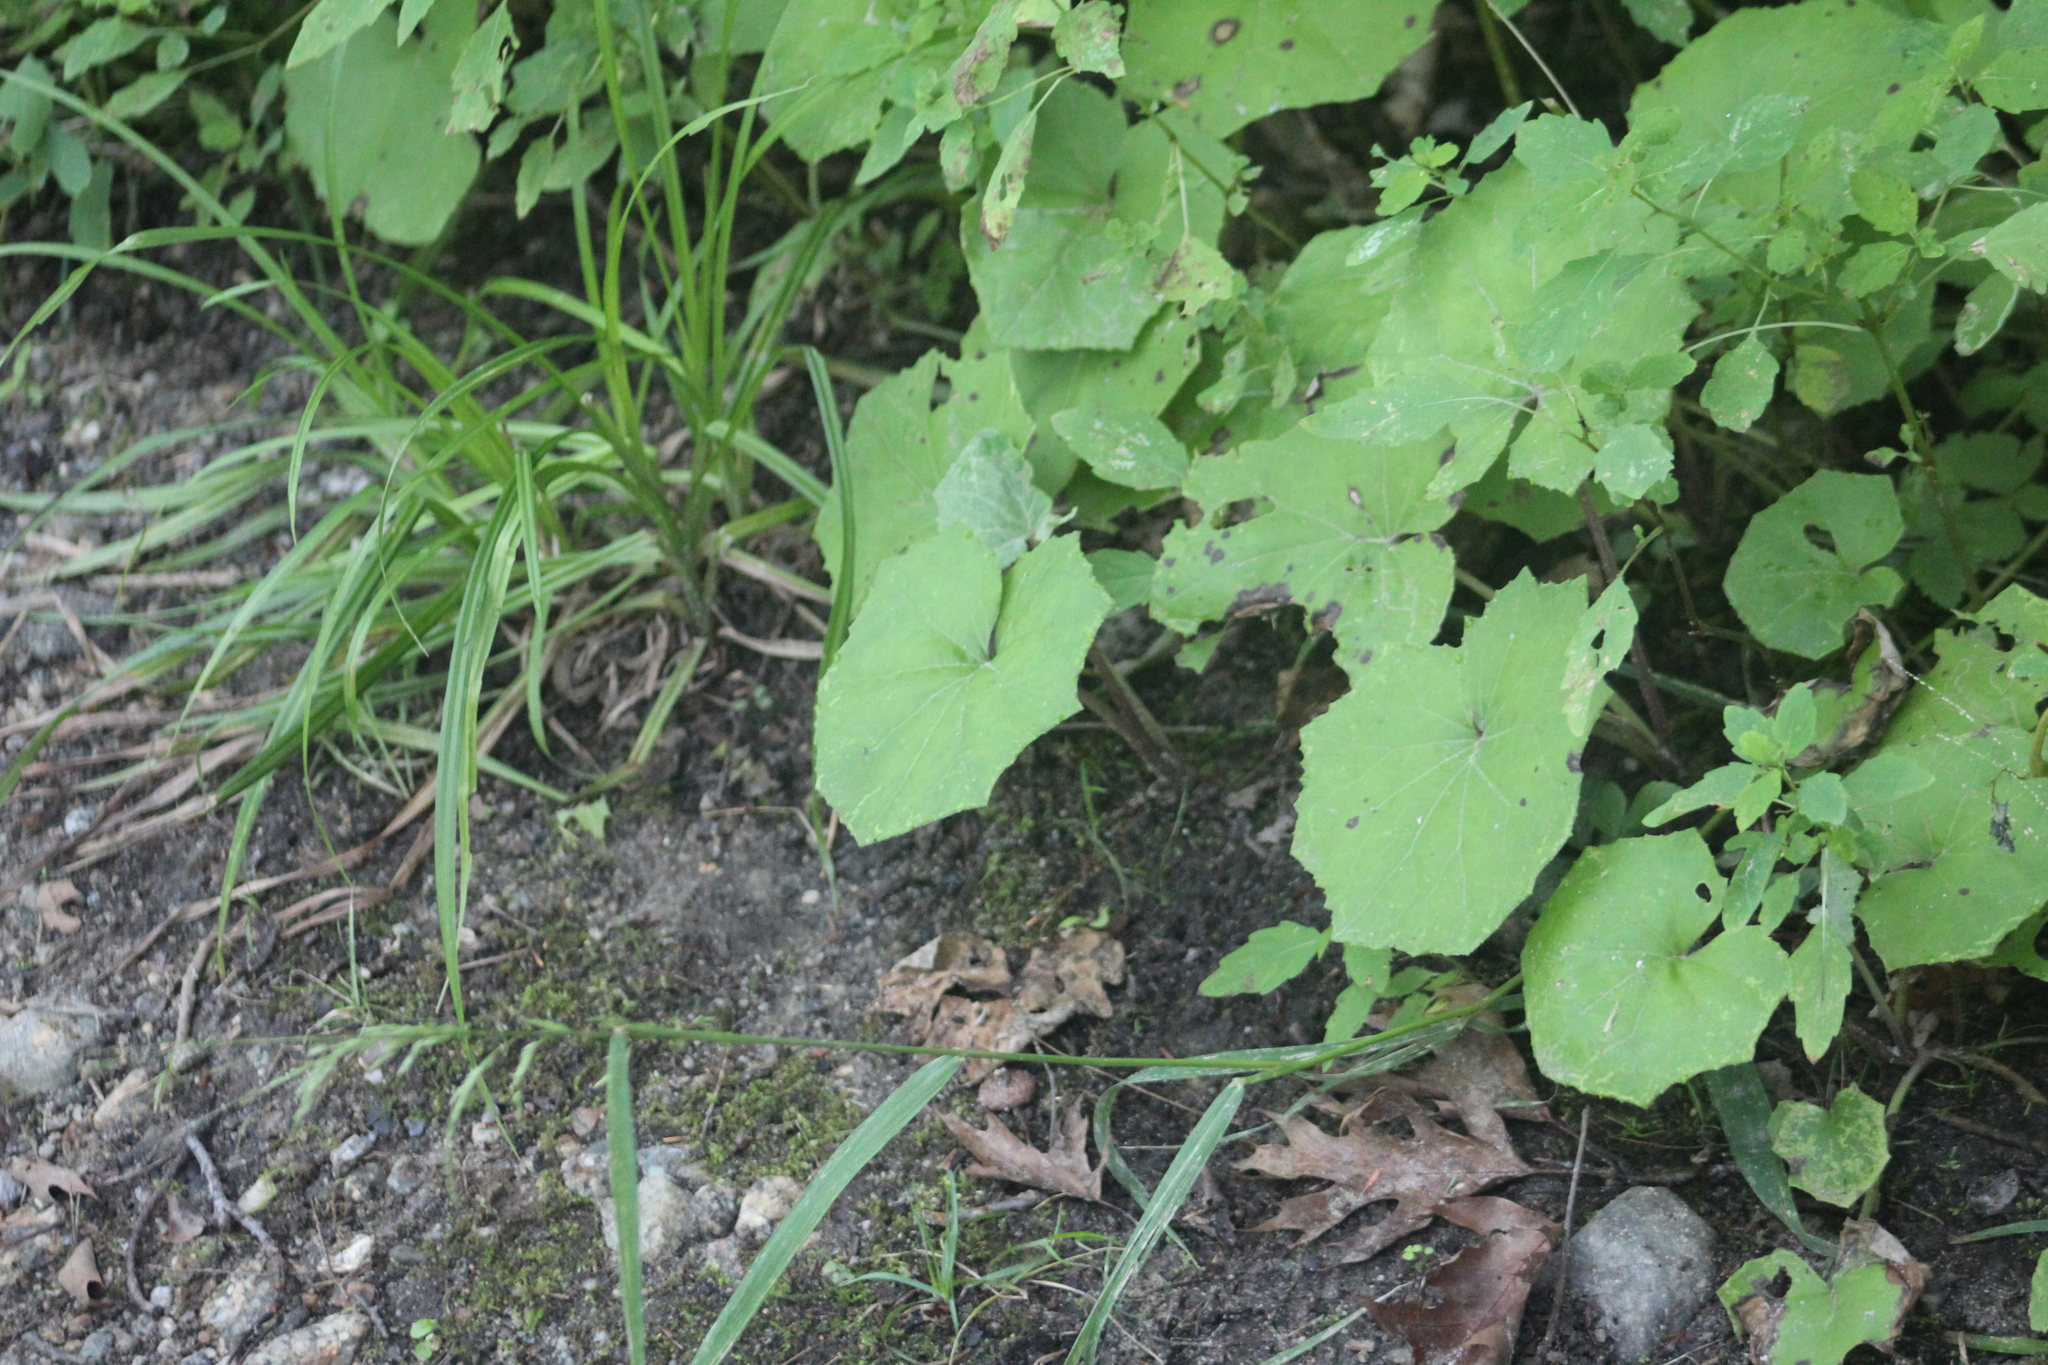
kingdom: Plantae
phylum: Tracheophyta
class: Magnoliopsida
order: Asterales
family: Asteraceae
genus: Tussilago
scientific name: Tussilago farfara
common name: Coltsfoot
